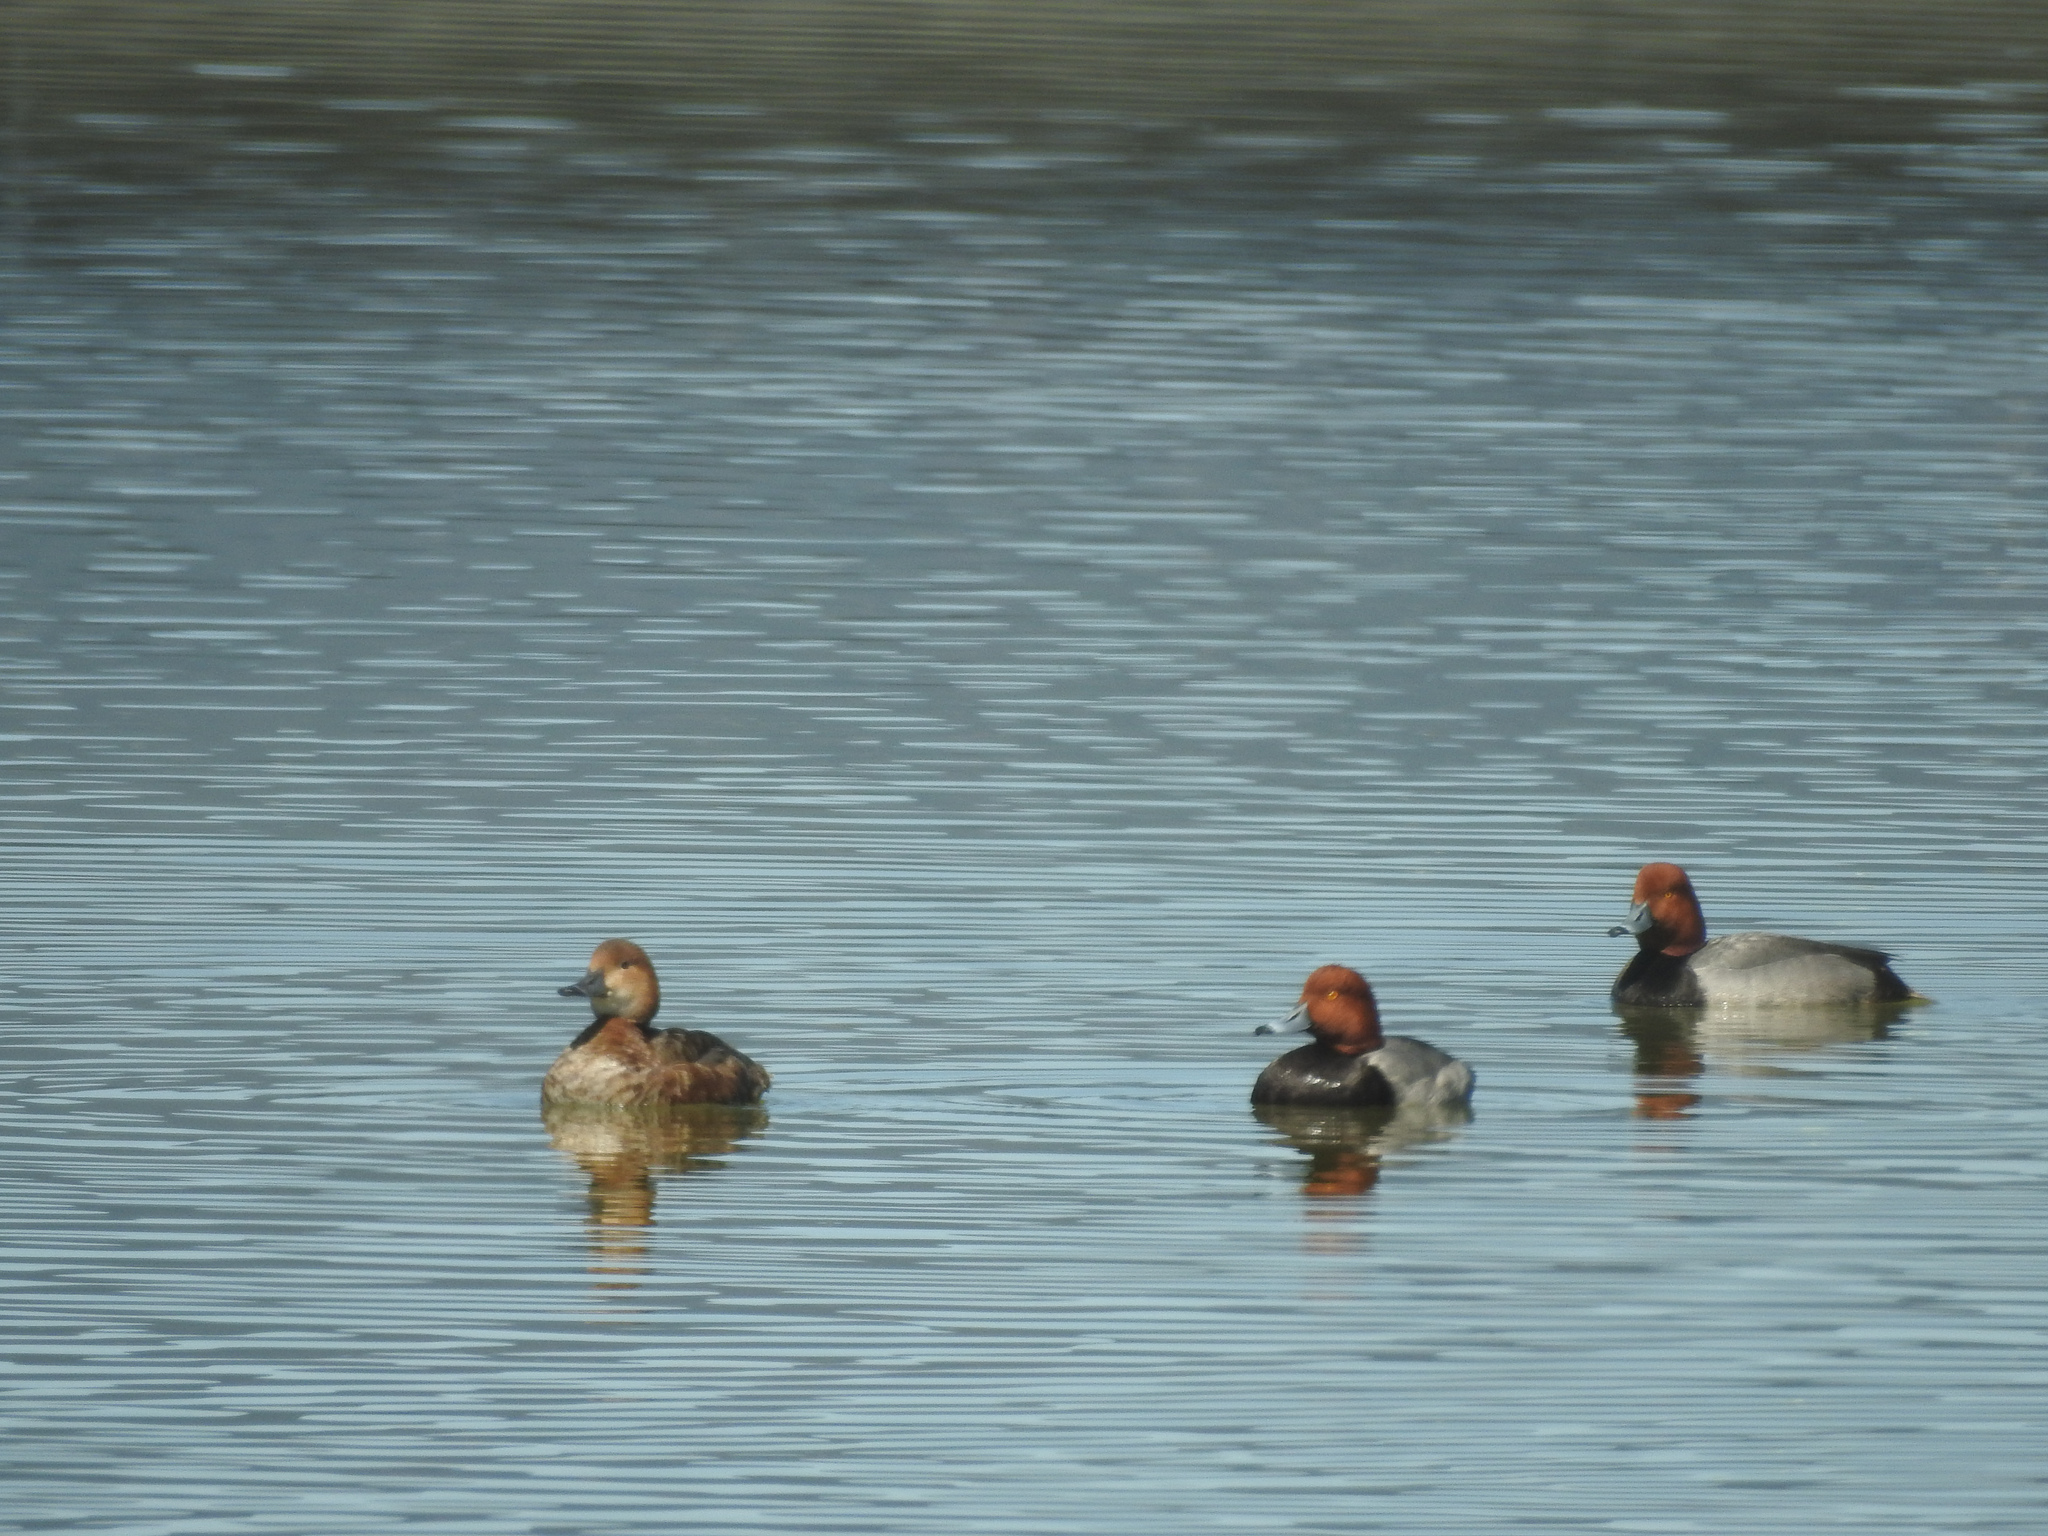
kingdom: Animalia
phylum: Chordata
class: Aves
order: Anseriformes
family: Anatidae
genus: Aythya
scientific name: Aythya americana
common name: Redhead
